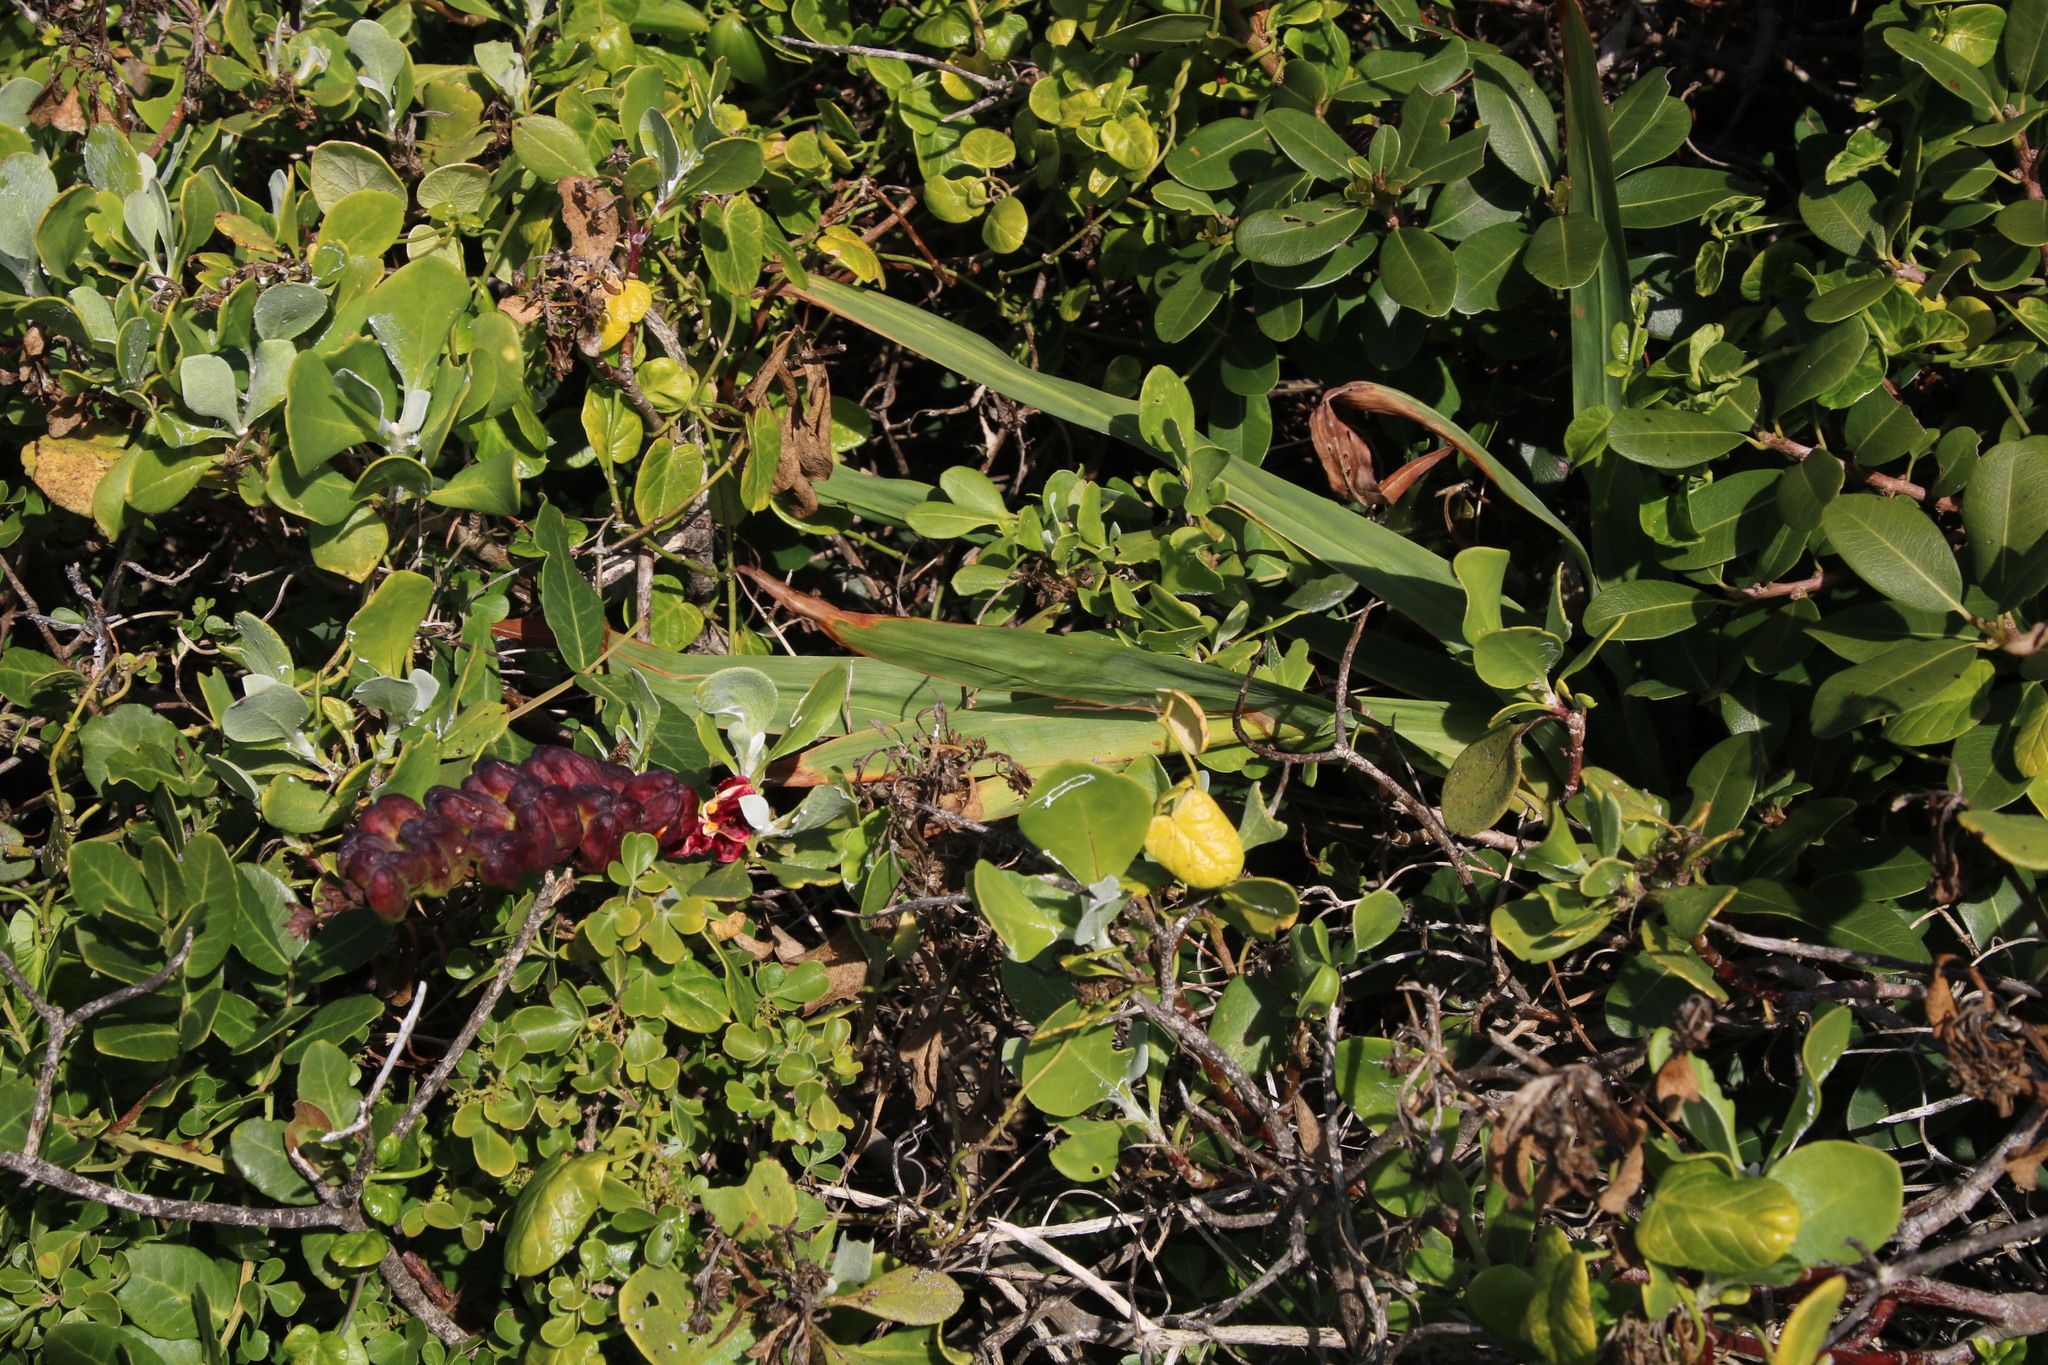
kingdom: Plantae
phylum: Tracheophyta
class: Liliopsida
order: Asparagales
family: Iridaceae
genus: Chasmanthe
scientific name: Chasmanthe aethiopica
